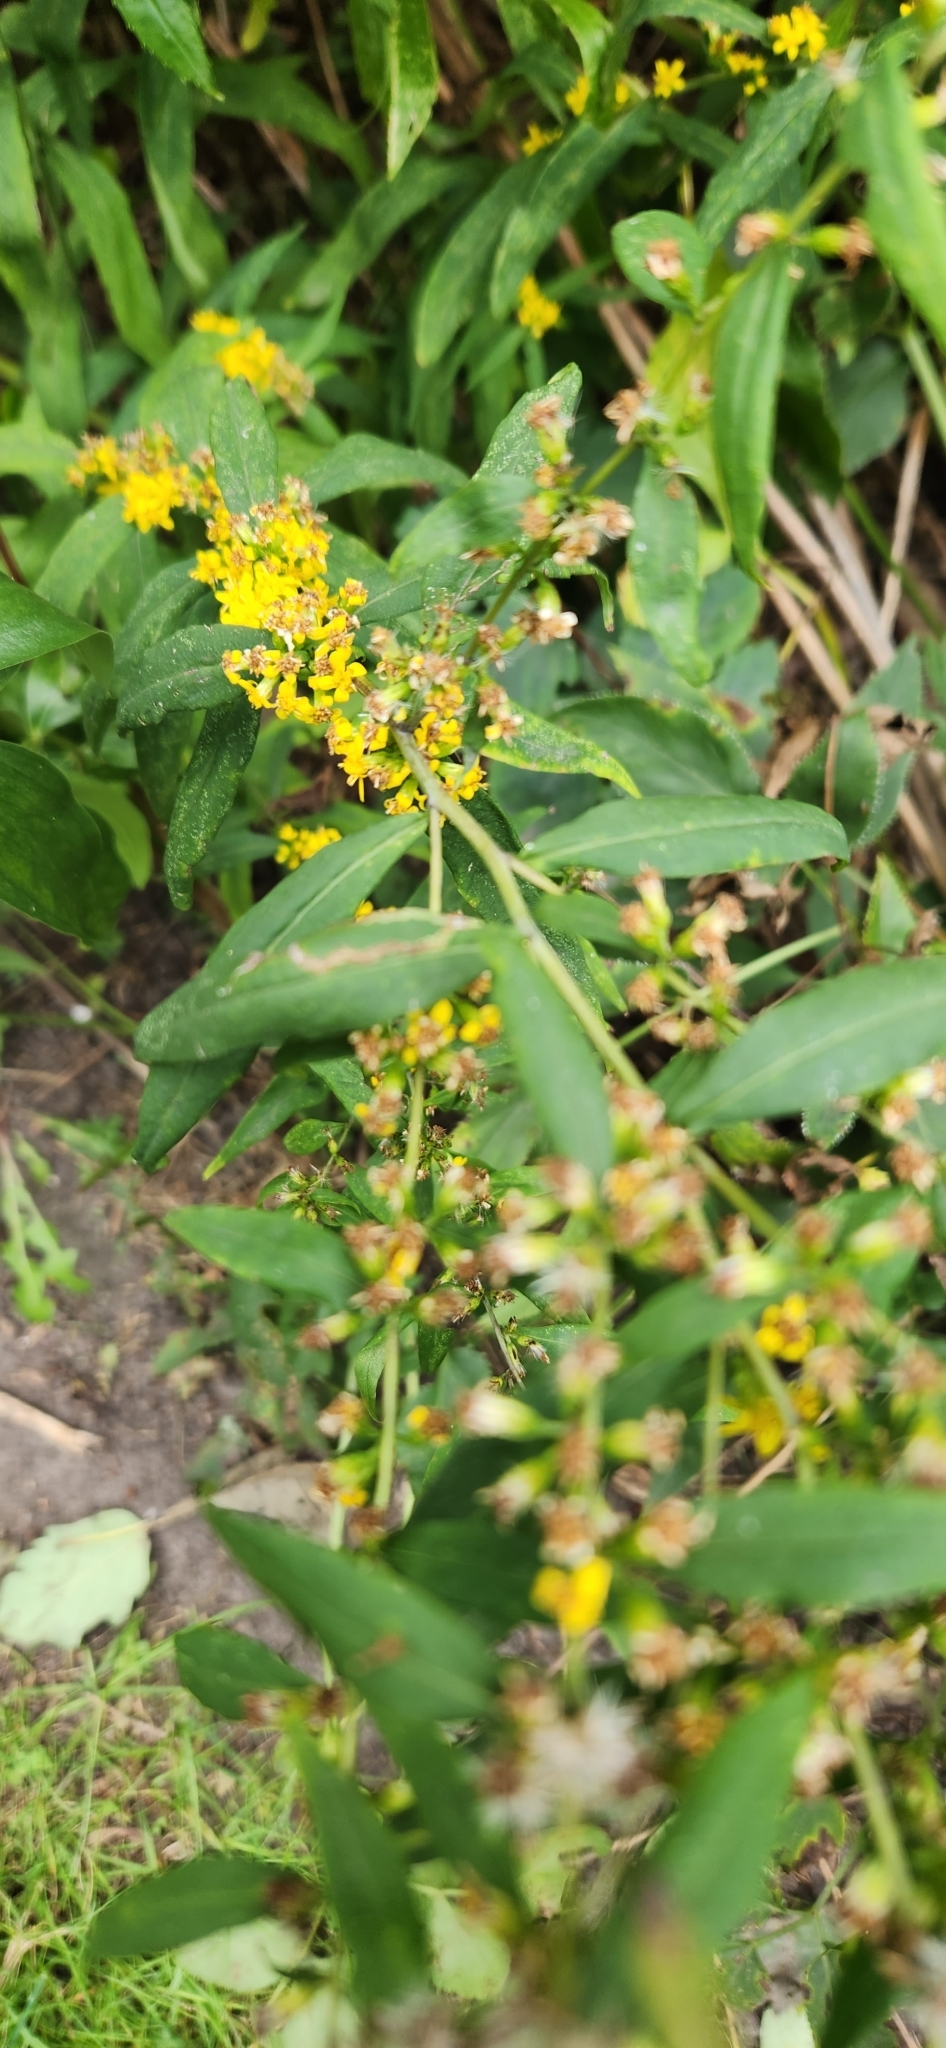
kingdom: Plantae
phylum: Tracheophyta
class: Magnoliopsida
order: Asterales
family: Asteraceae
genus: Solidago
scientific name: Solidago caesia
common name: Woodland goldenrod
